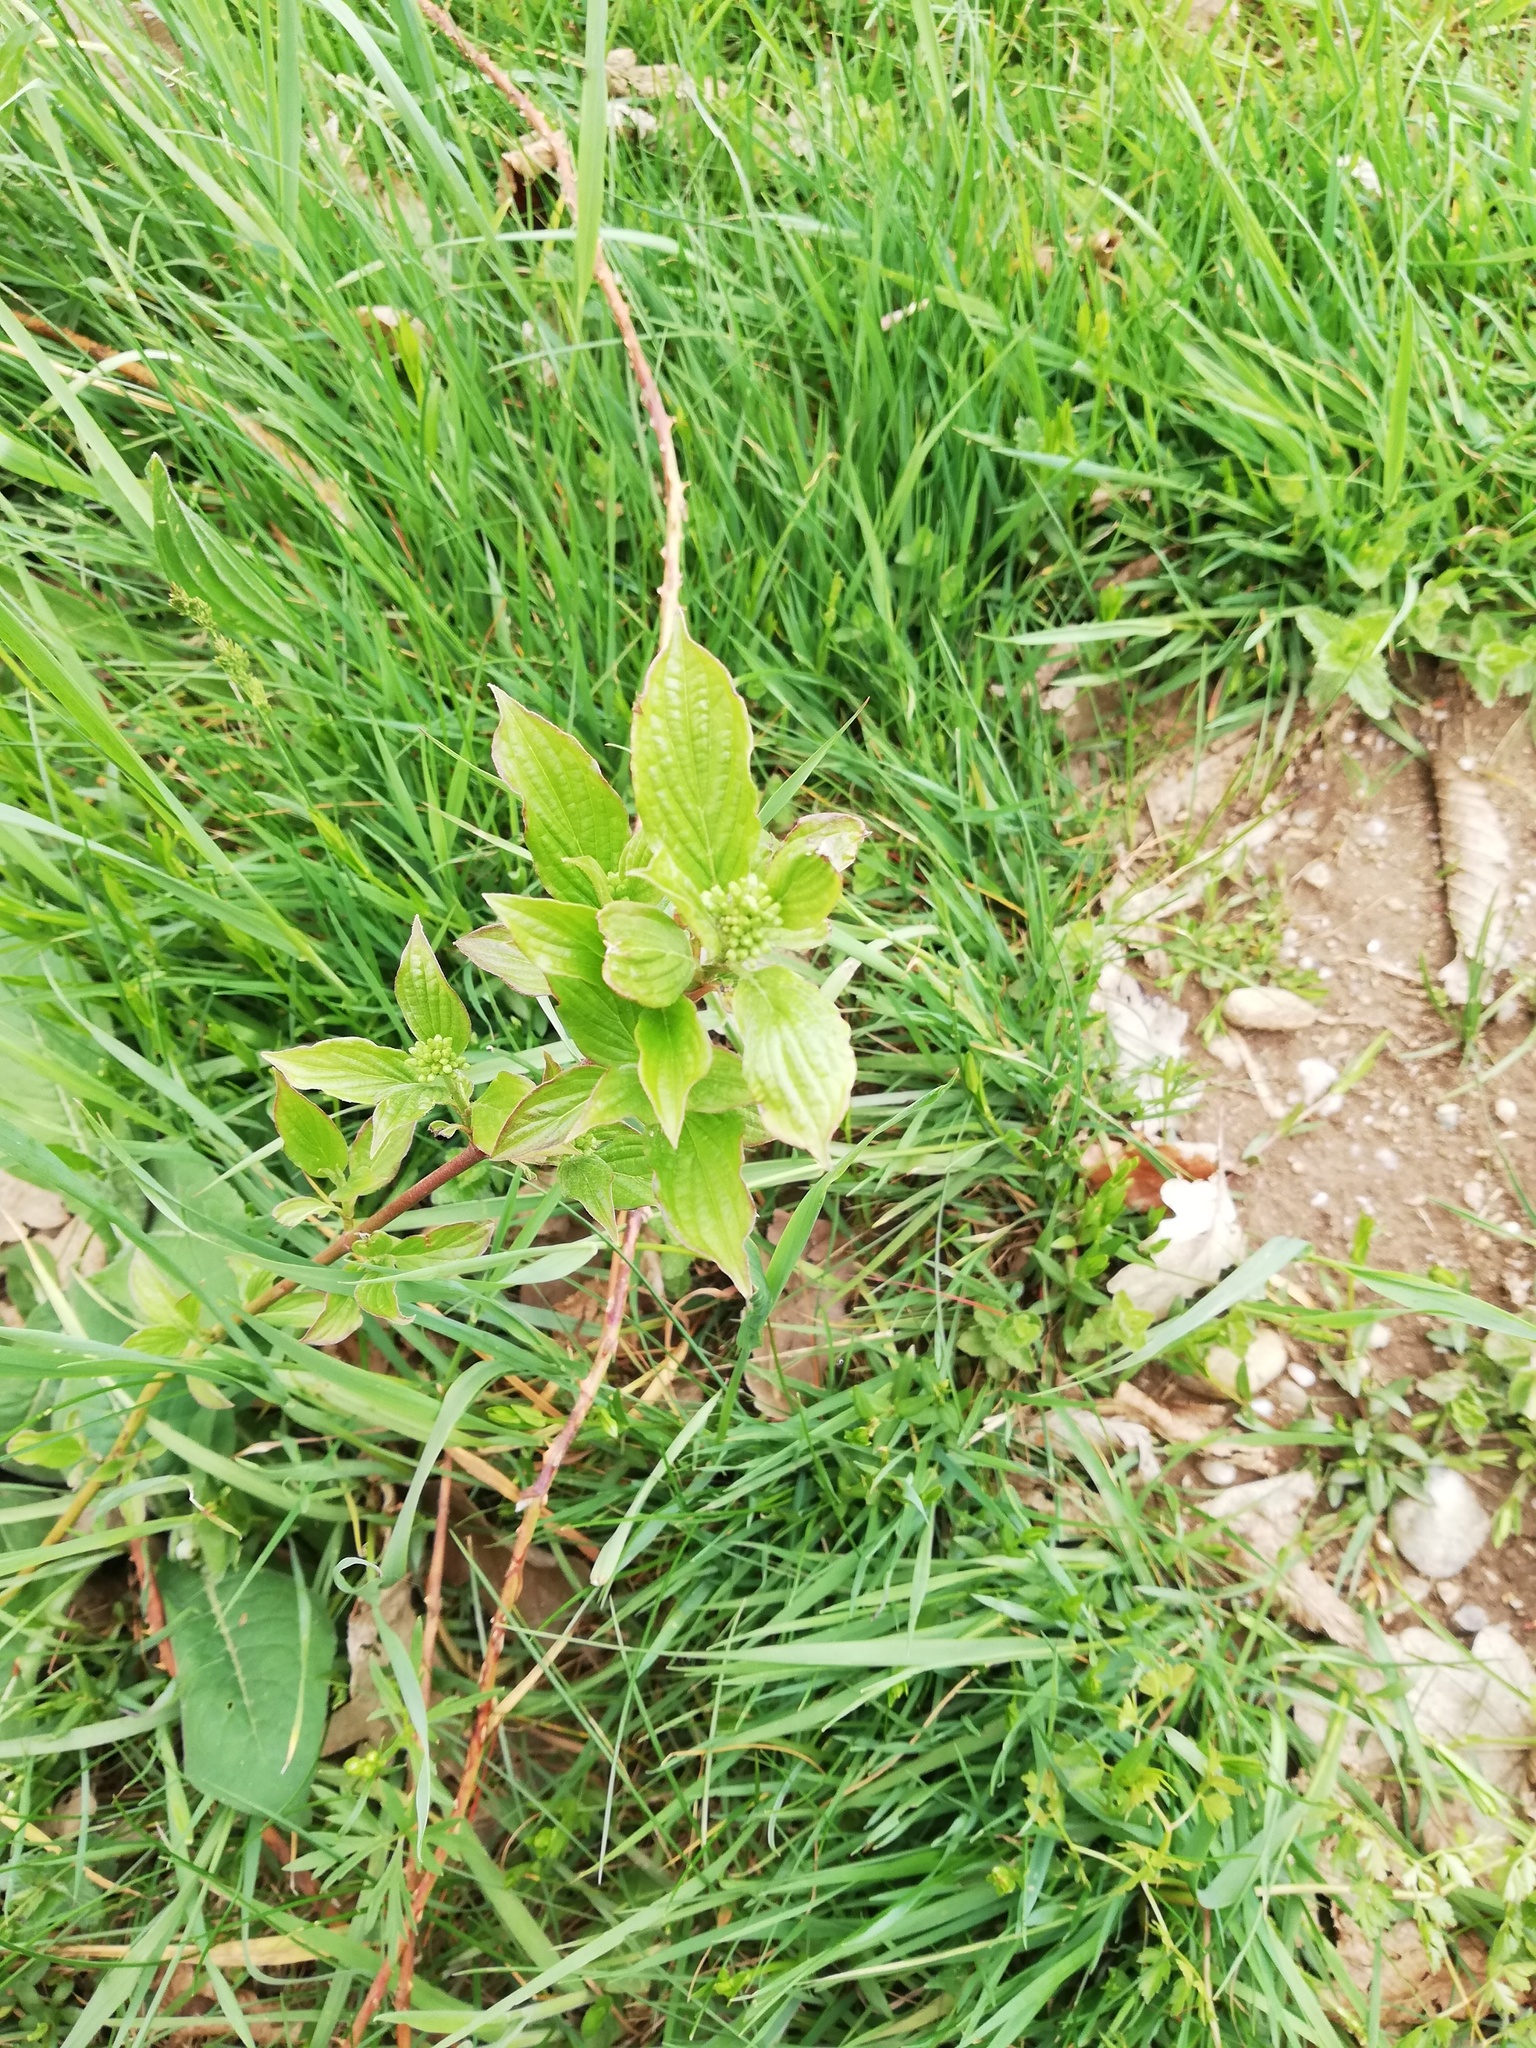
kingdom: Plantae
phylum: Tracheophyta
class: Magnoliopsida
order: Cornales
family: Cornaceae
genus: Cornus
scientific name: Cornus sanguinea
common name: Dogwood
